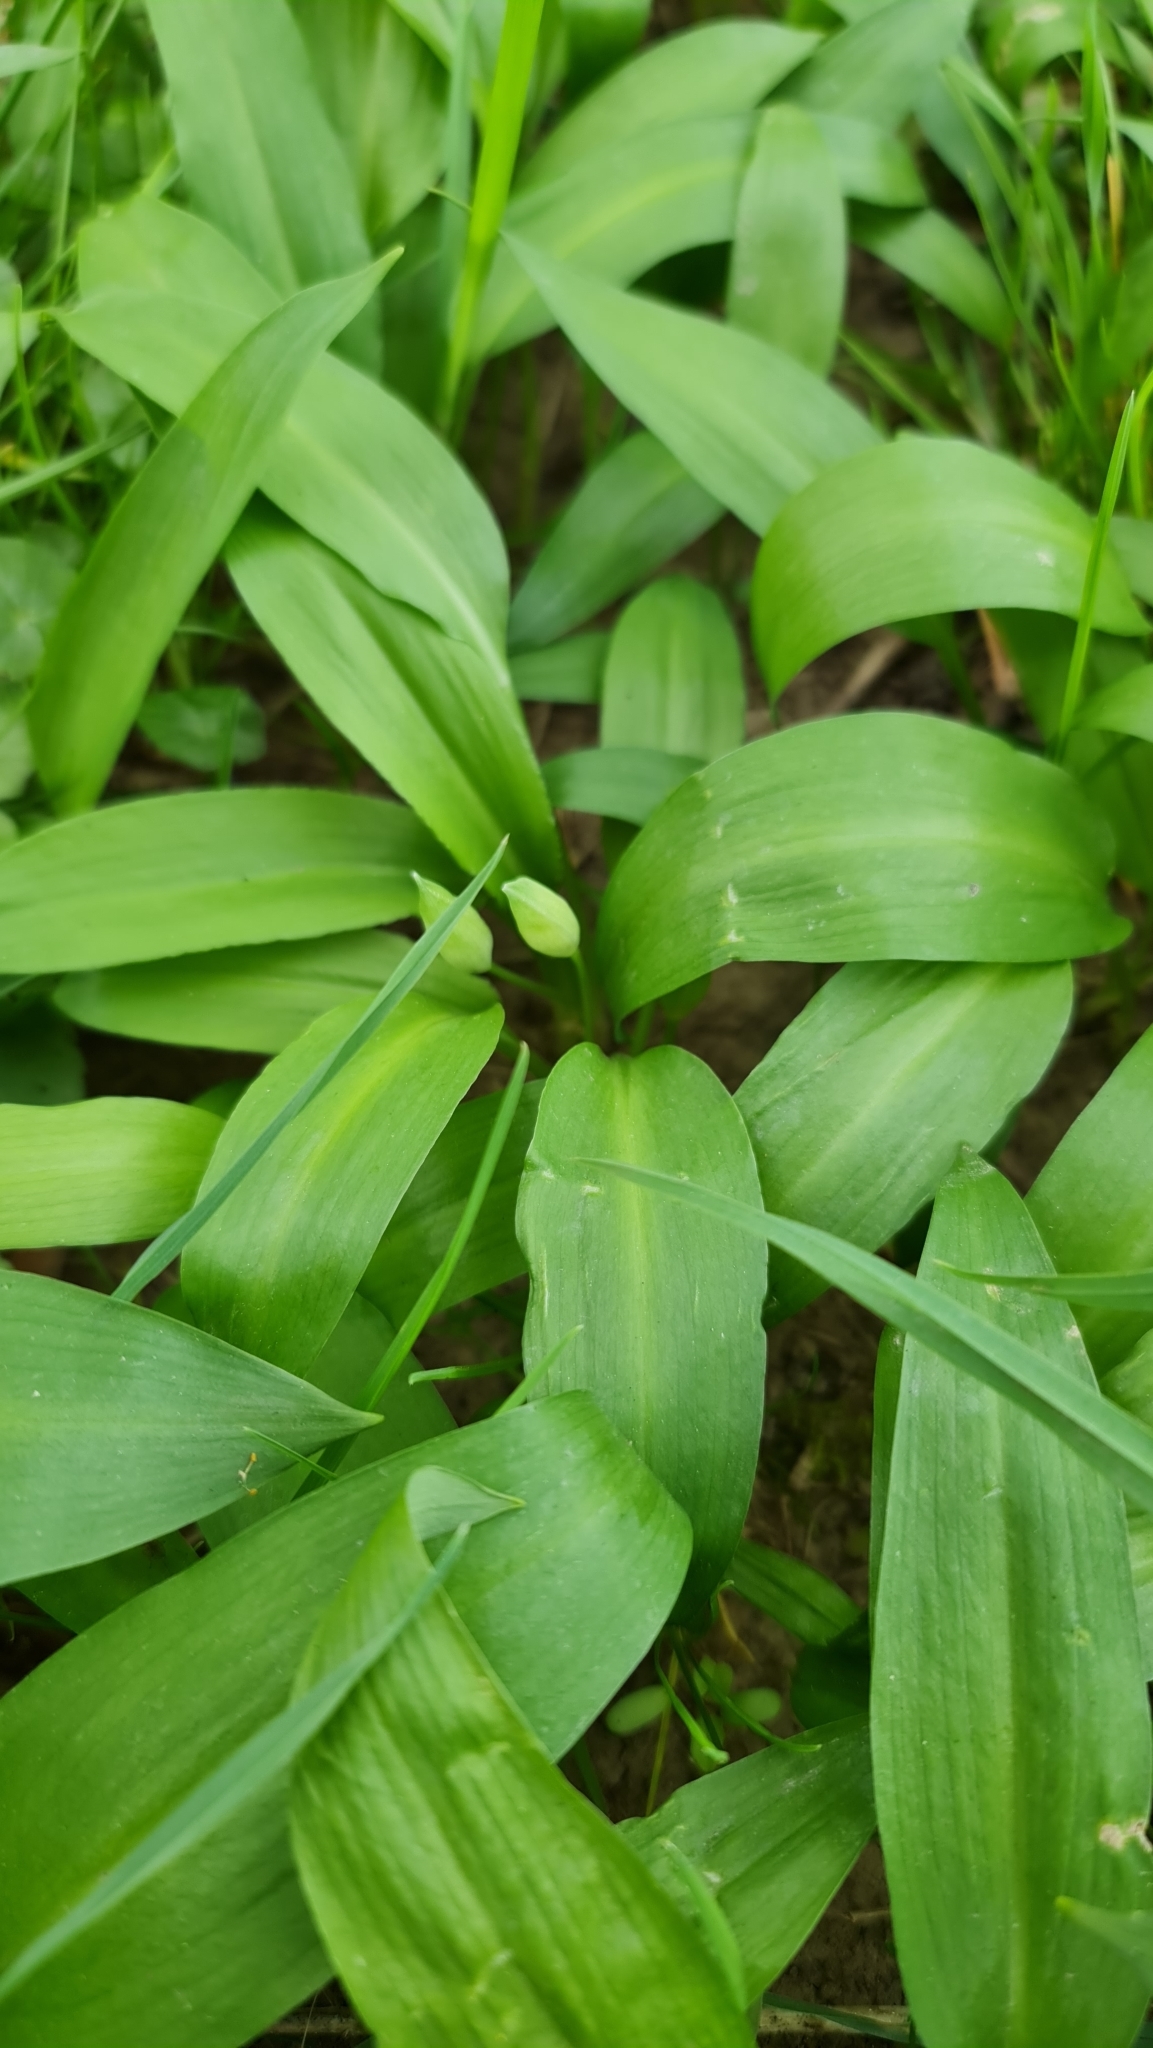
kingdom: Plantae
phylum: Tracheophyta
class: Liliopsida
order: Asparagales
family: Amaryllidaceae
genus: Allium
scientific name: Allium ursinum
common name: Ramsons
